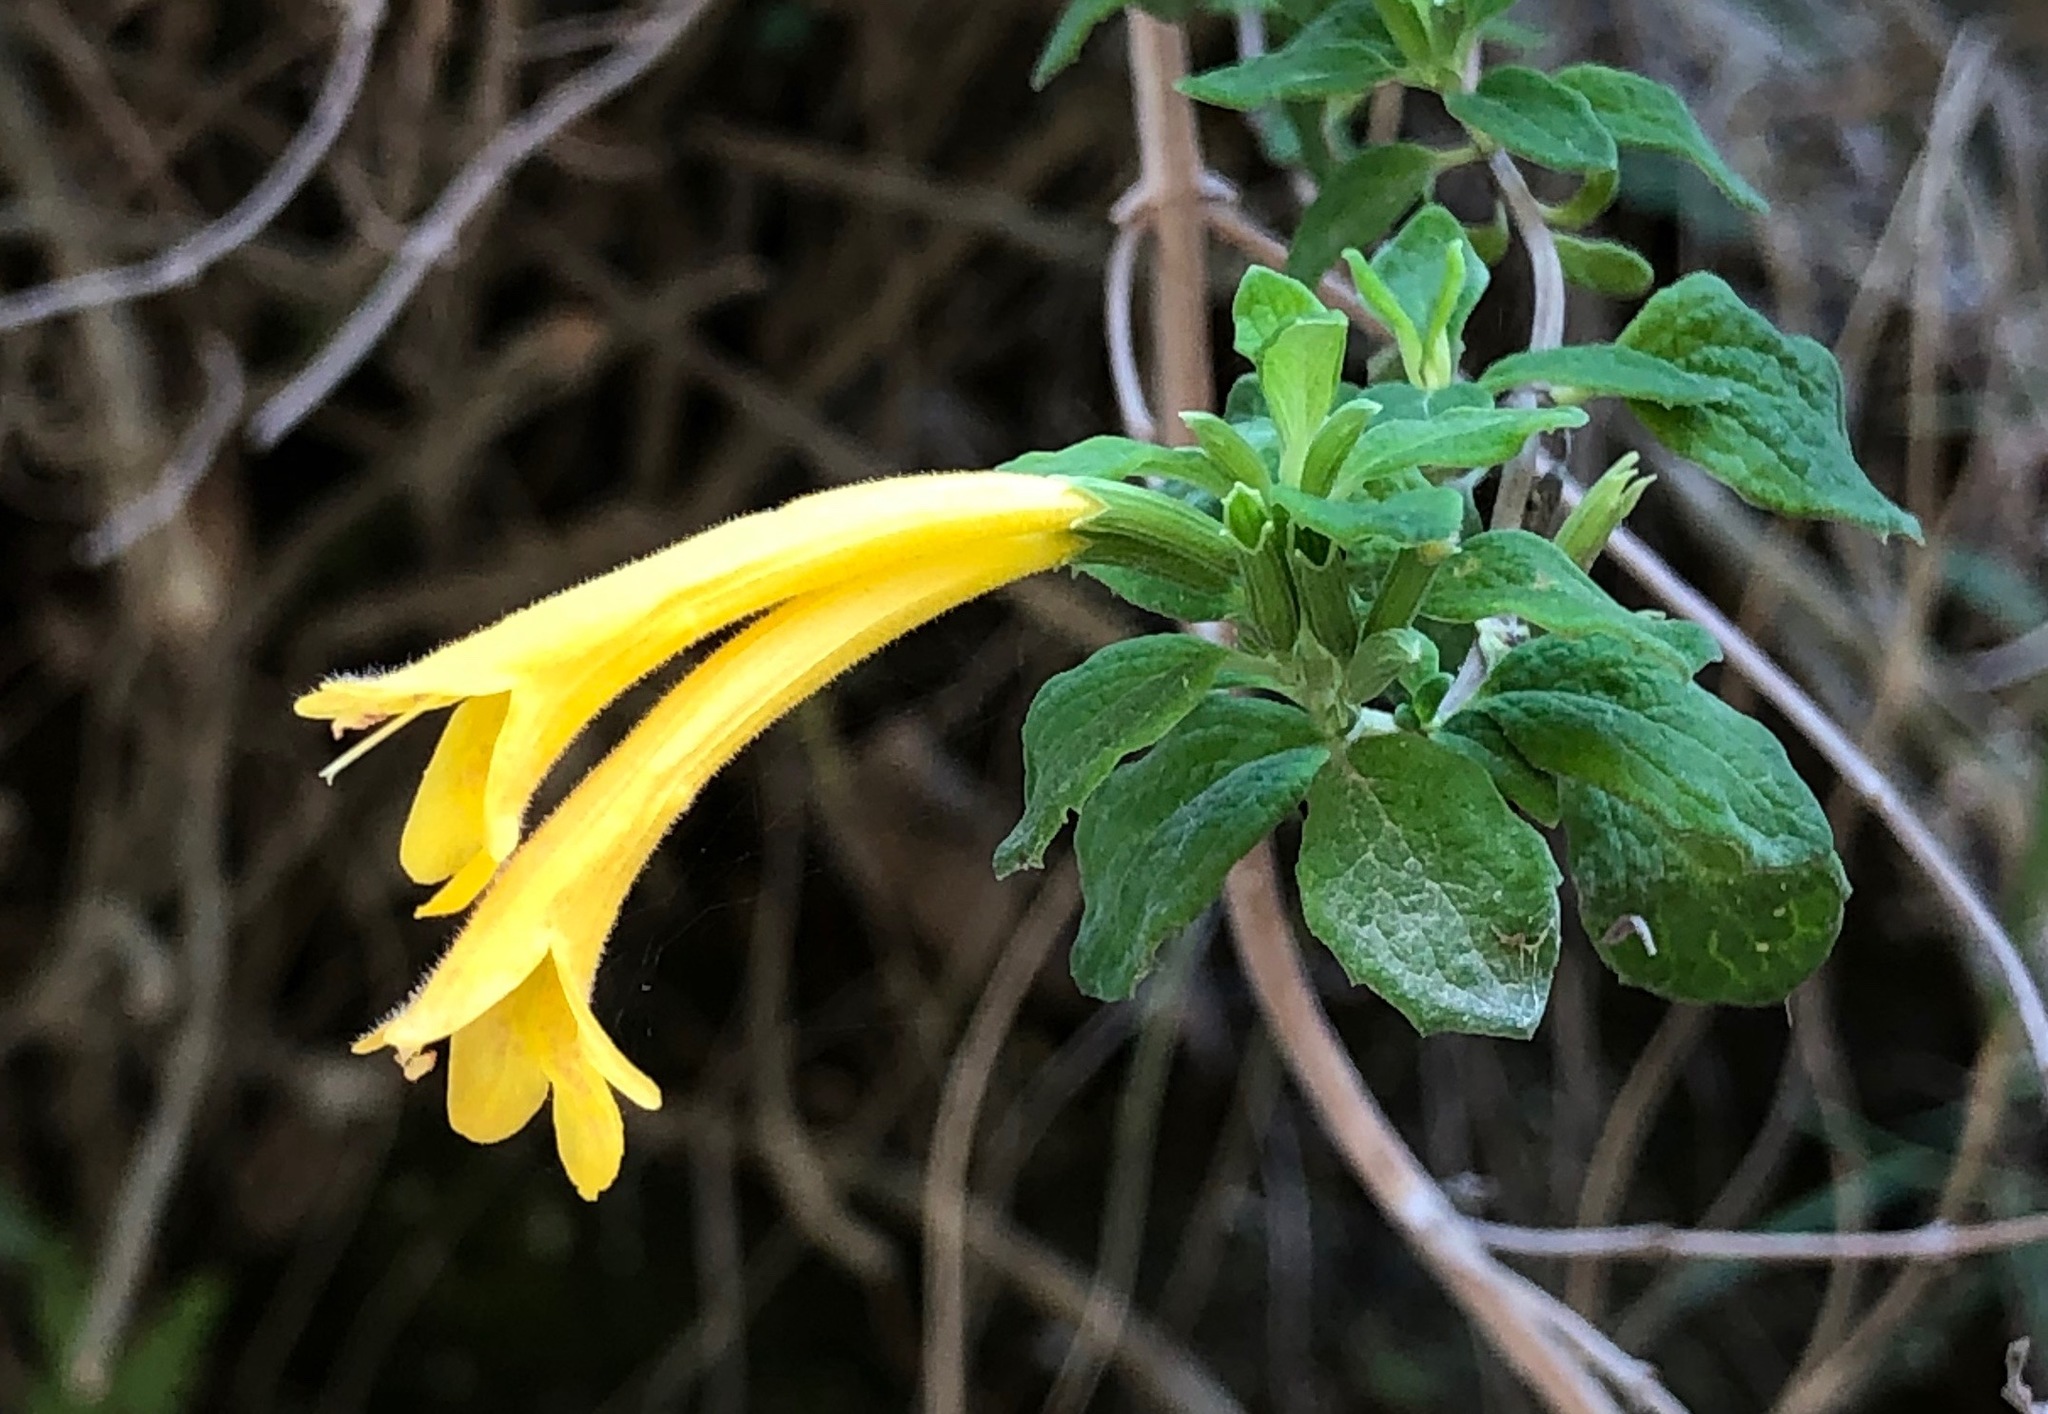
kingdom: Plantae
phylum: Tracheophyta
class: Magnoliopsida
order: Lamiales
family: Lamiaceae
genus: Clinopodium
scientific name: Clinopodium tomentosum
